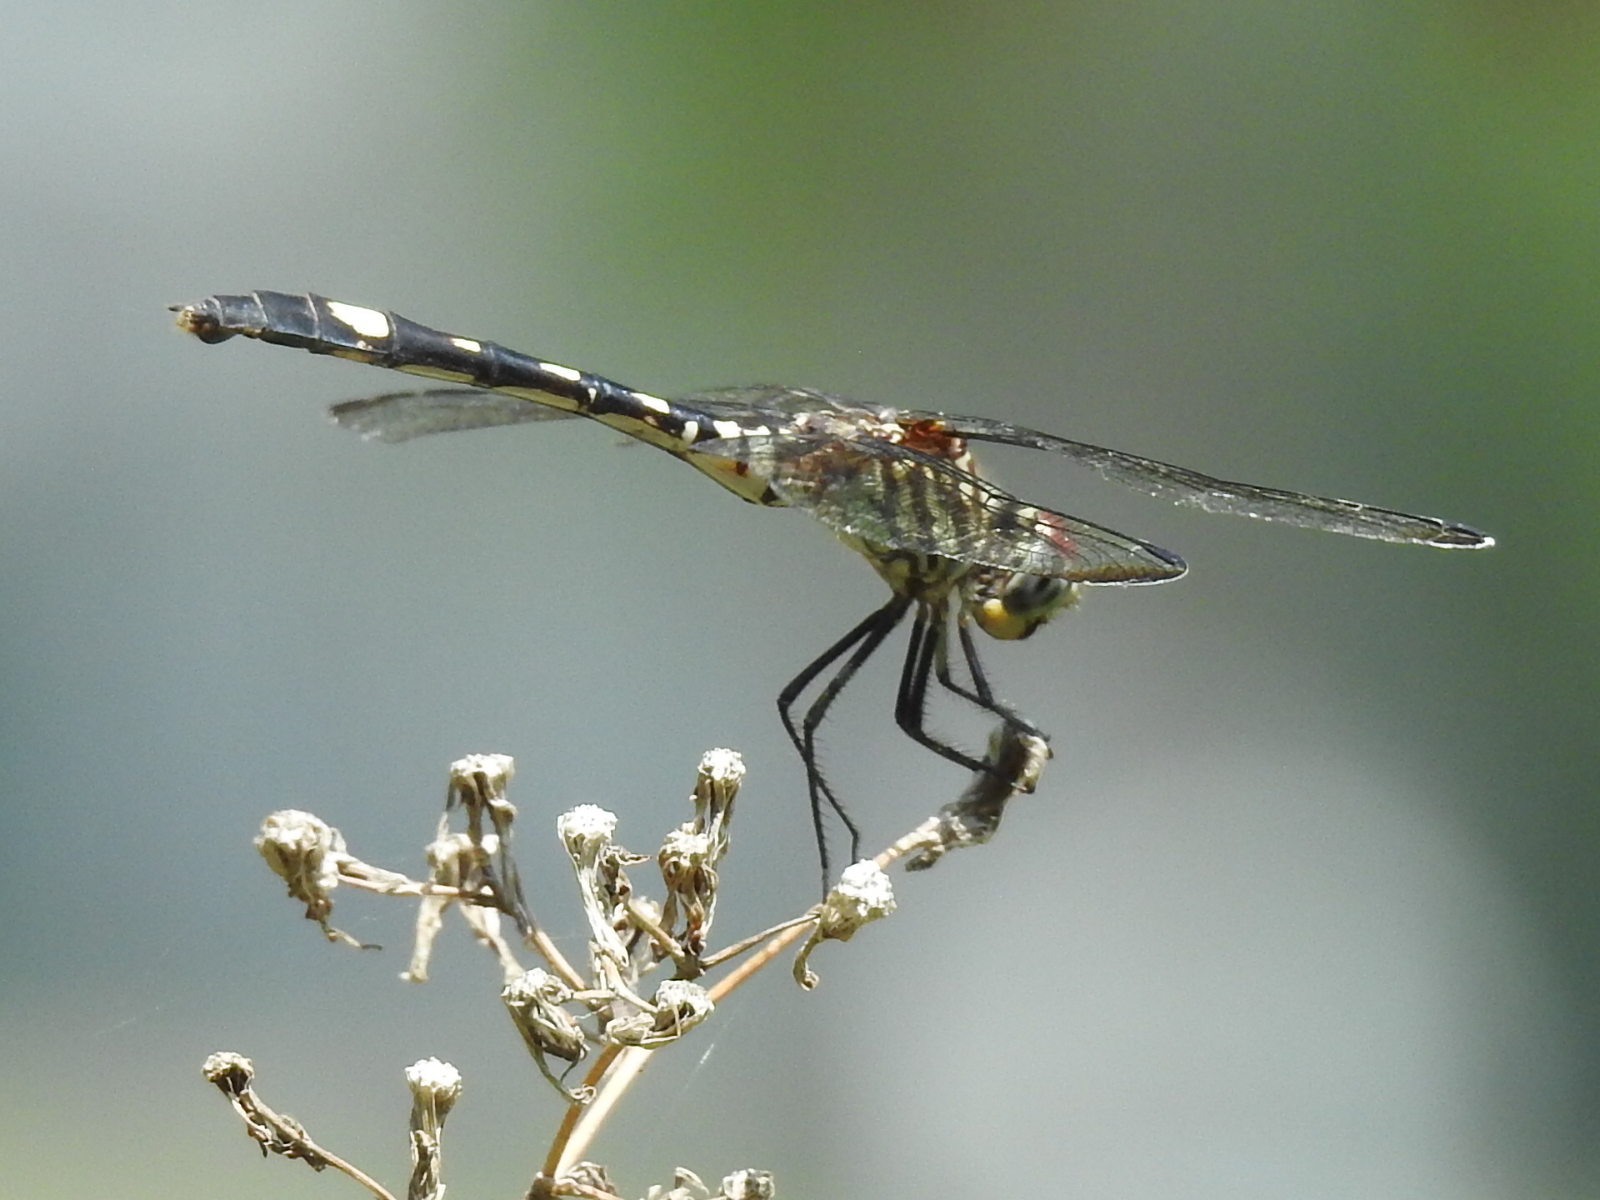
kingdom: Animalia
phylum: Arthropoda
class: Insecta
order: Odonata
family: Libellulidae
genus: Dythemis
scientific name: Dythemis velox
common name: Swift setwing
